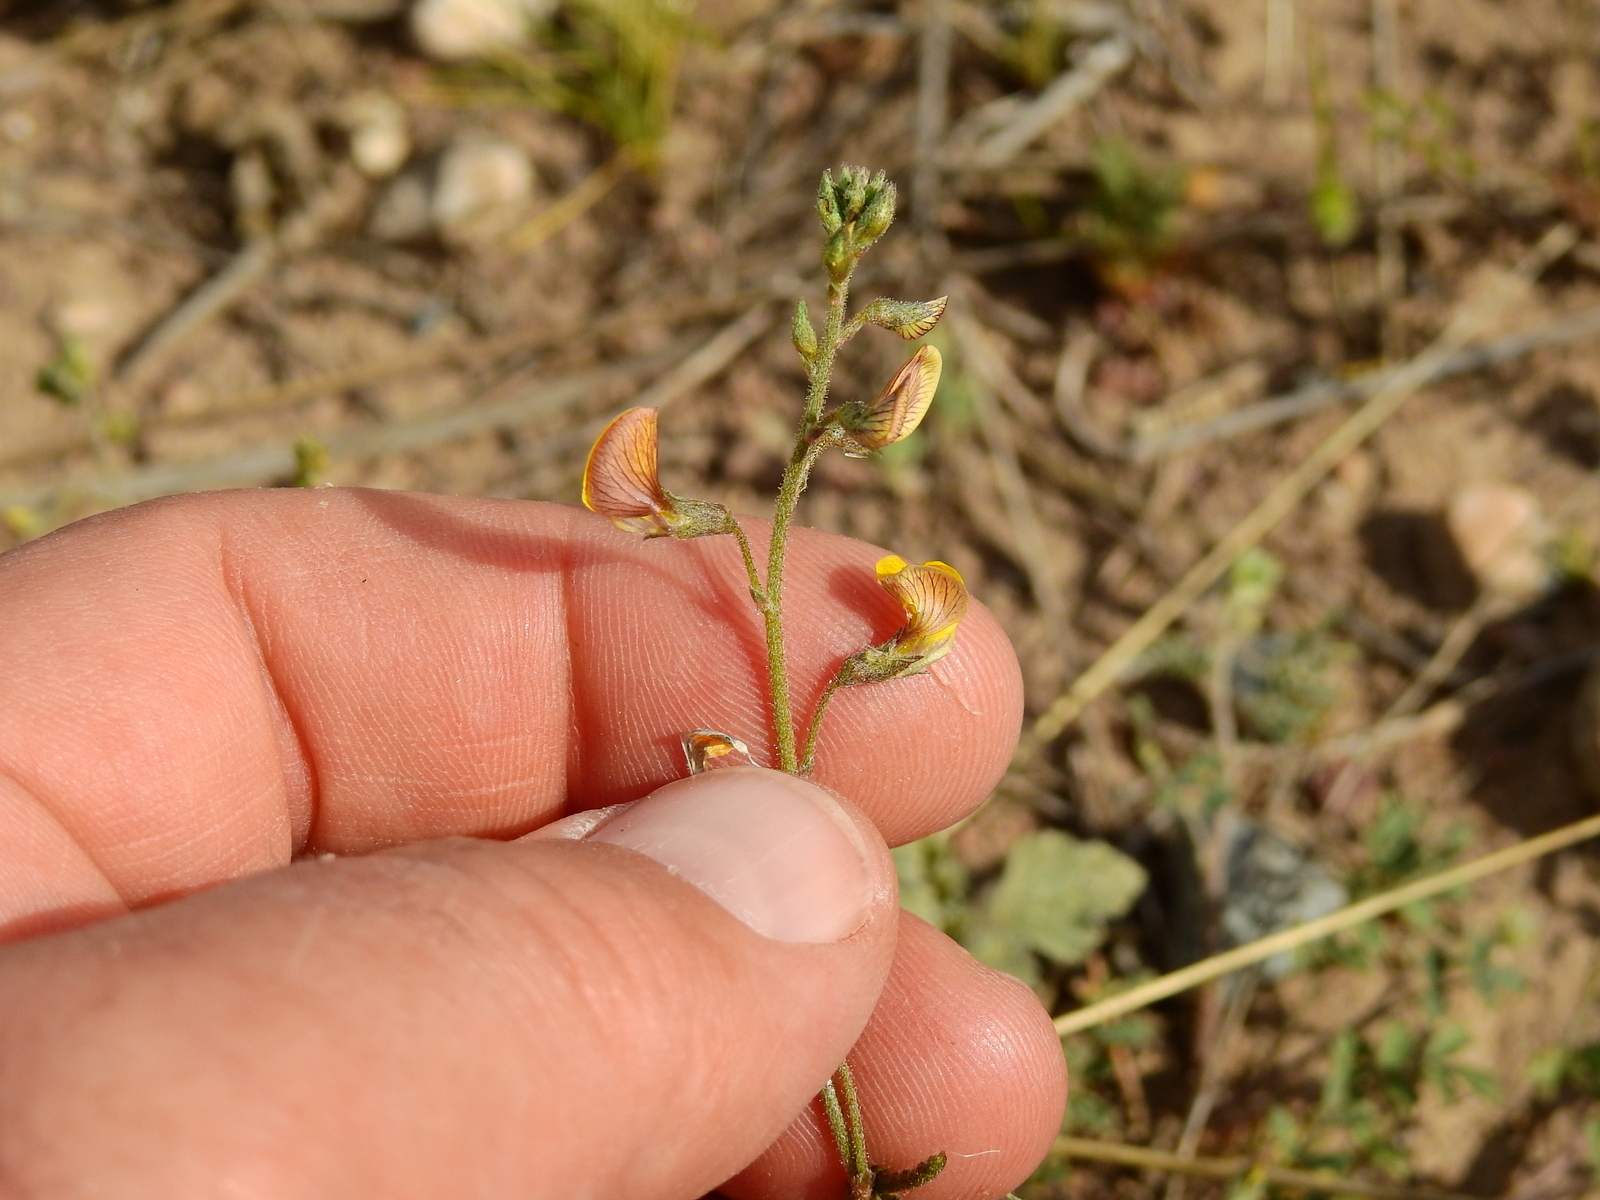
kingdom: Plantae
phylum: Tracheophyta
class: Magnoliopsida
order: Fabales
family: Fabaceae
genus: Adesmia
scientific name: Adesmia muricata
